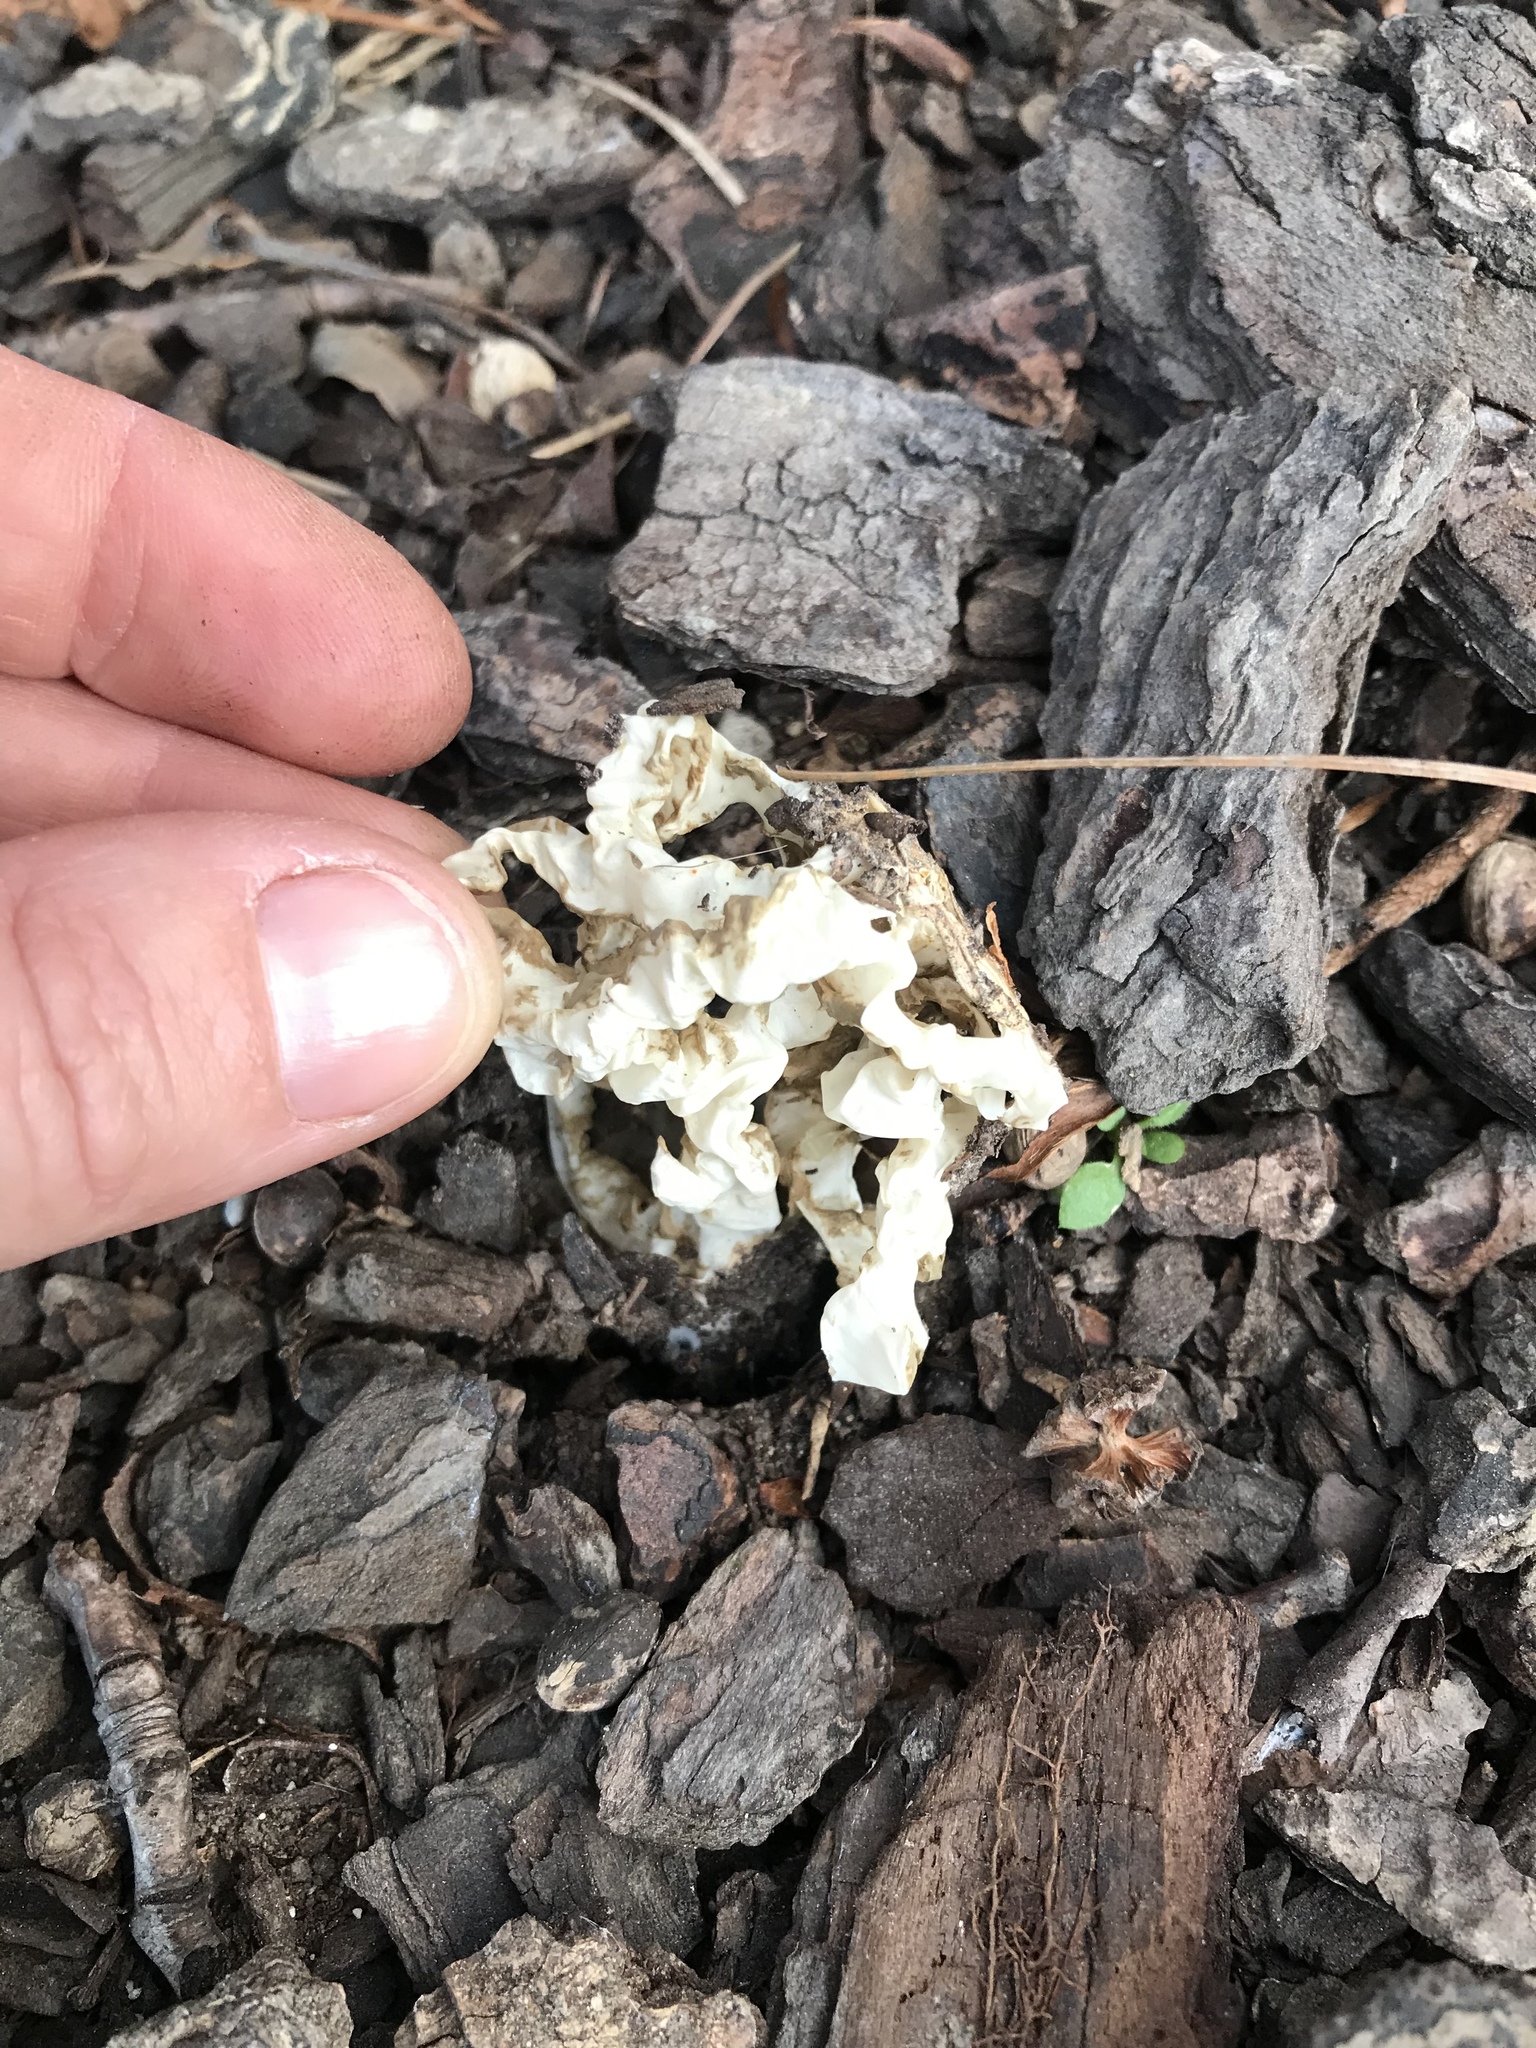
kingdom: Fungi
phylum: Basidiomycota
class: Agaricomycetes
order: Phallales
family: Phallaceae
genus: Ileodictyon
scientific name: Ileodictyon cibarium
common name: Basket fungus
